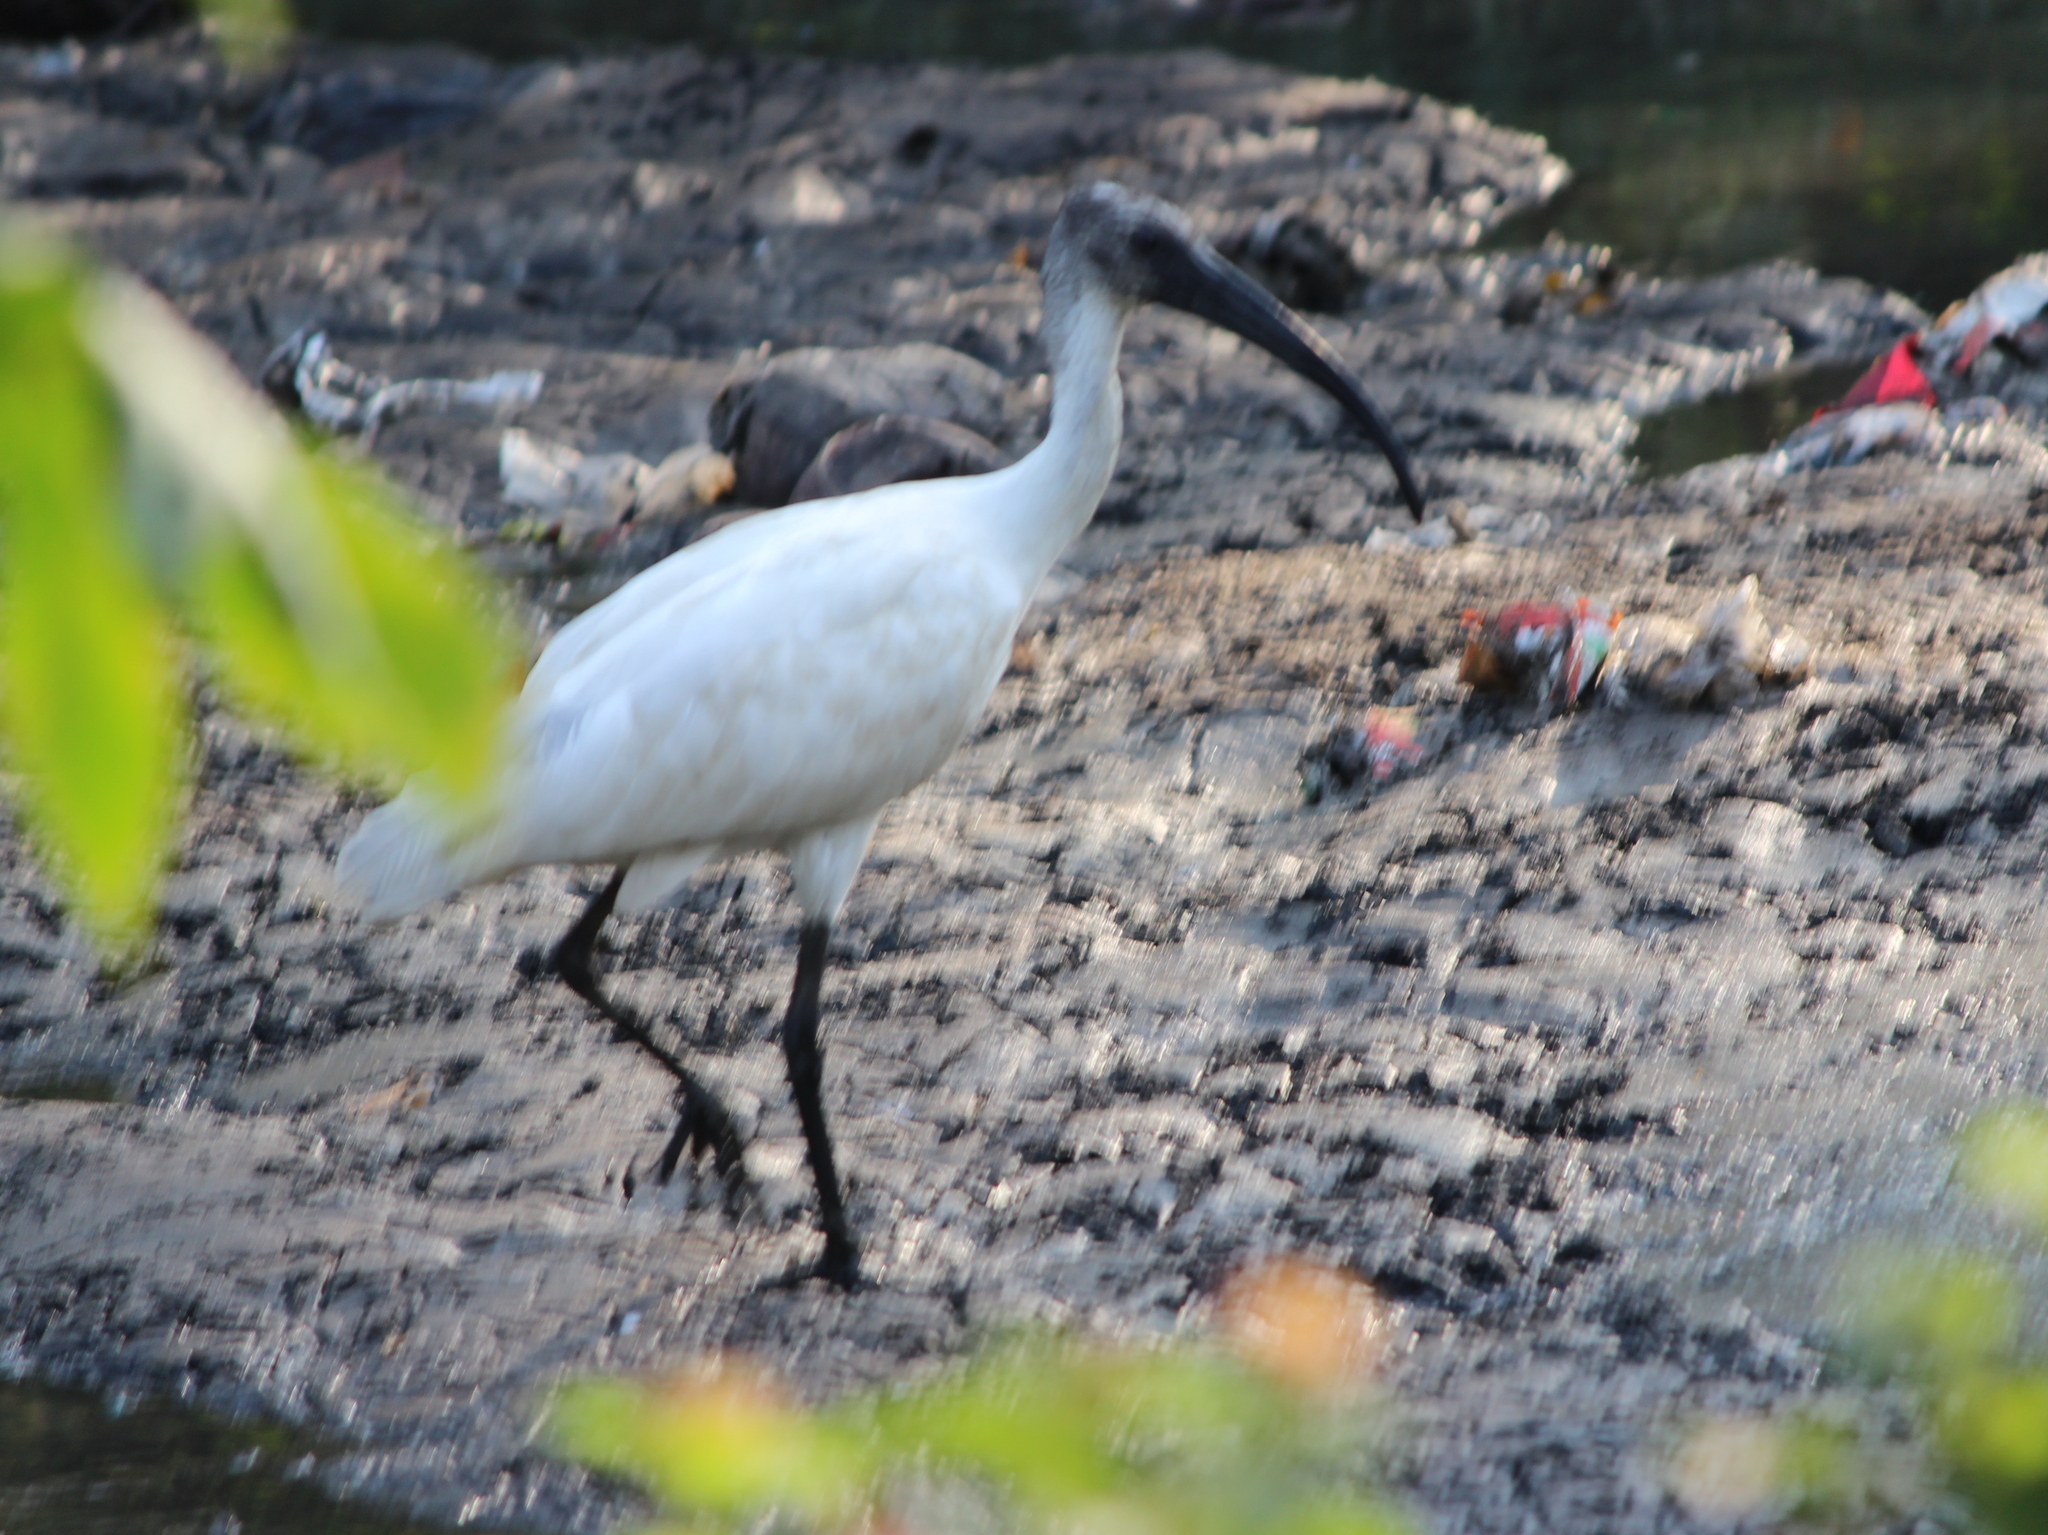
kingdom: Animalia
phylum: Chordata
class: Aves
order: Pelecaniformes
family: Threskiornithidae
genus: Threskiornis
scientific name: Threskiornis melanocephalus
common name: Black-headed ibis
